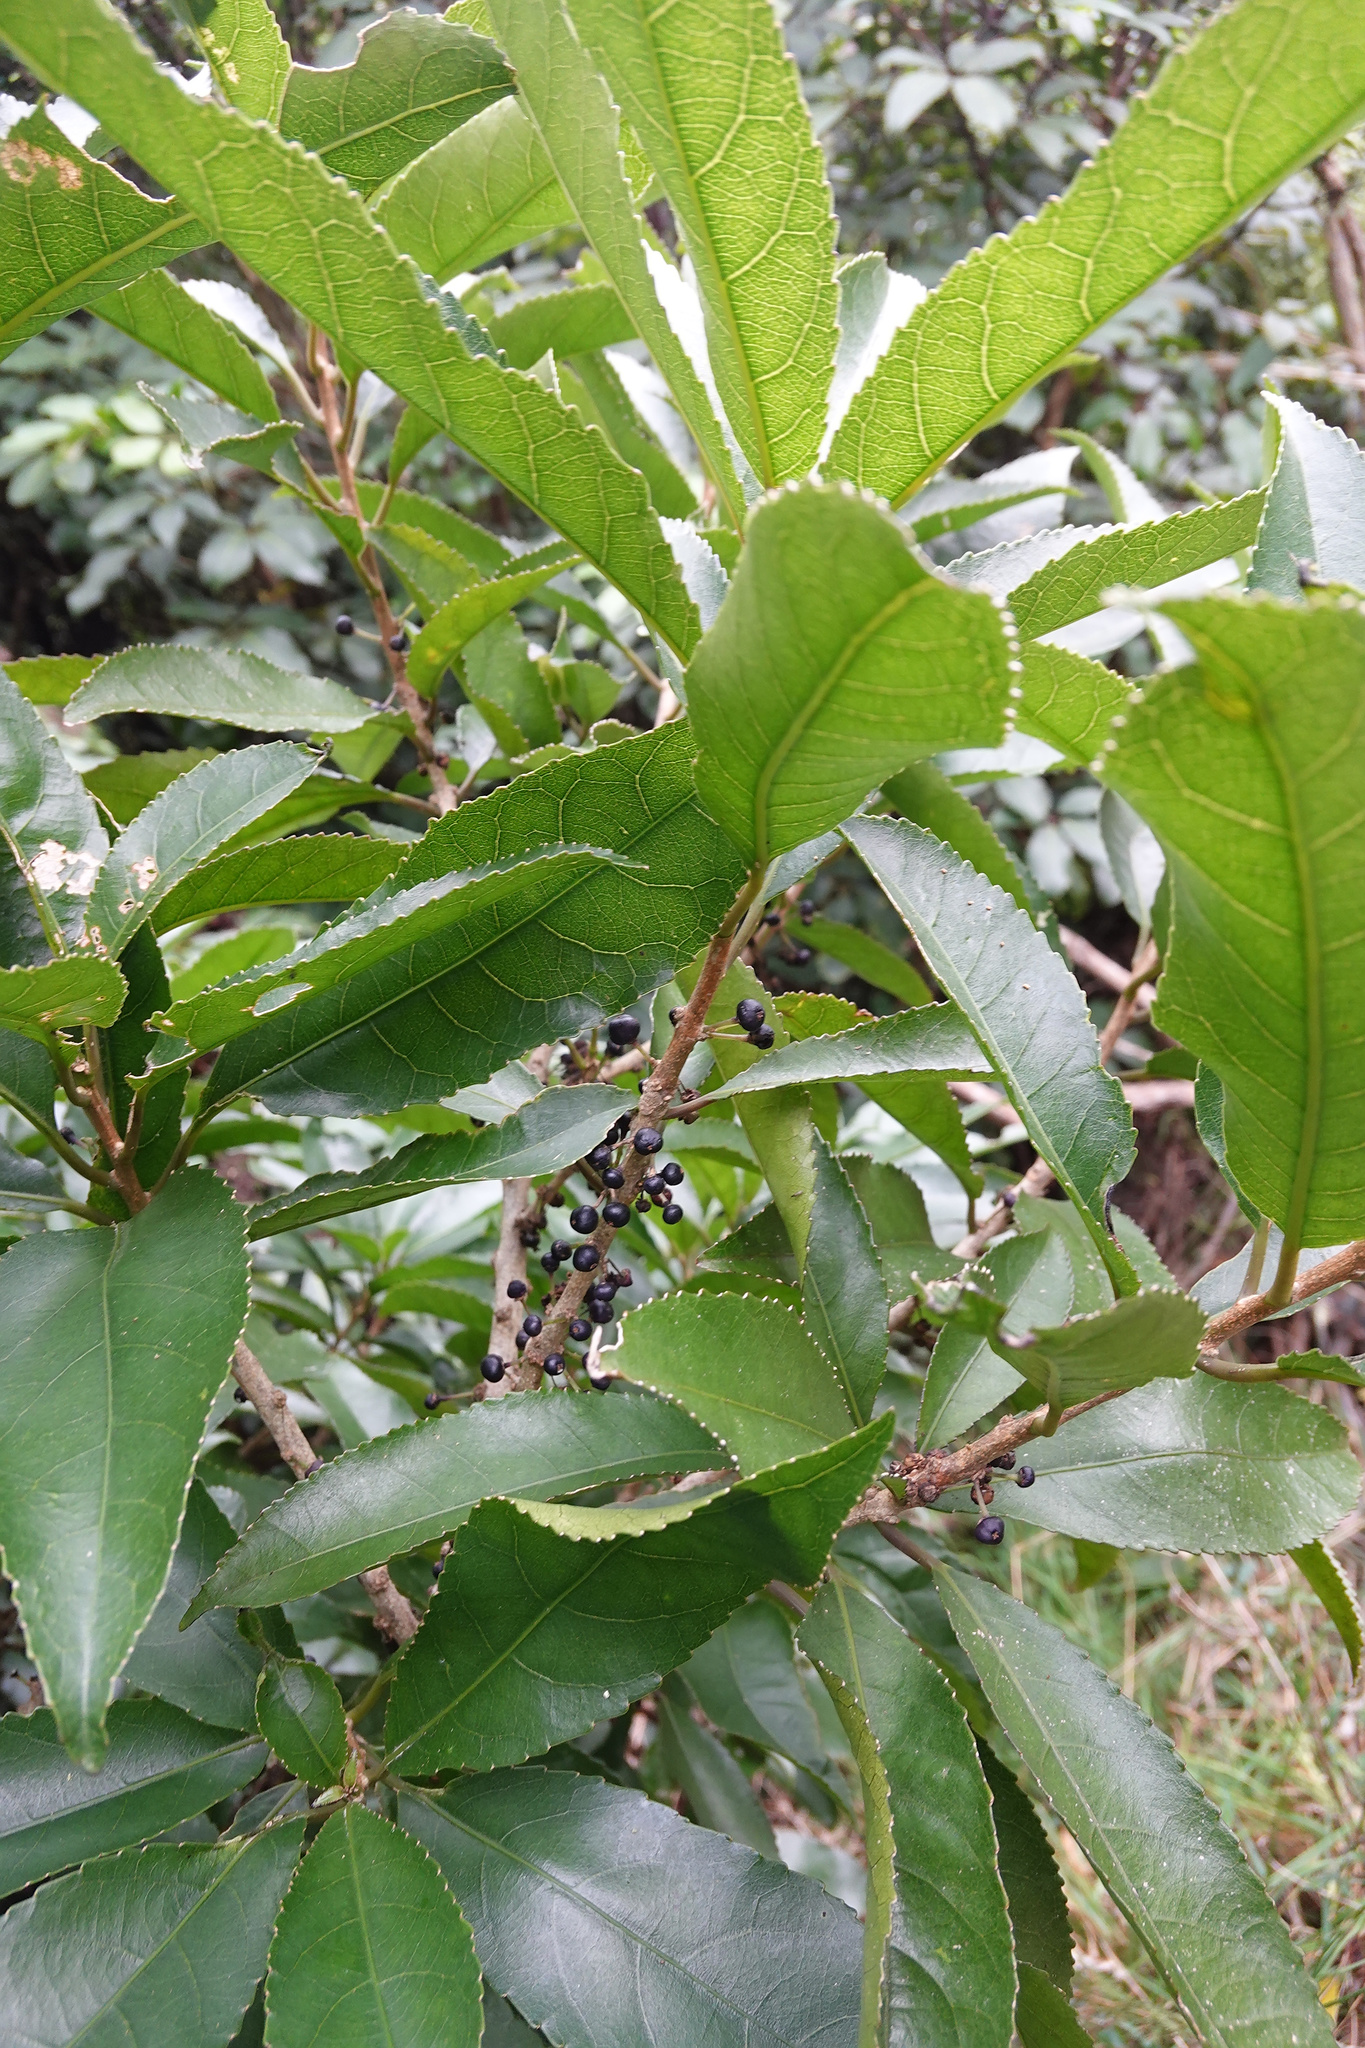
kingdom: Plantae
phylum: Tracheophyta
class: Magnoliopsida
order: Malpighiales
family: Violaceae
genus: Melicytus
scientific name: Melicytus ramiflorus
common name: Mahoe
